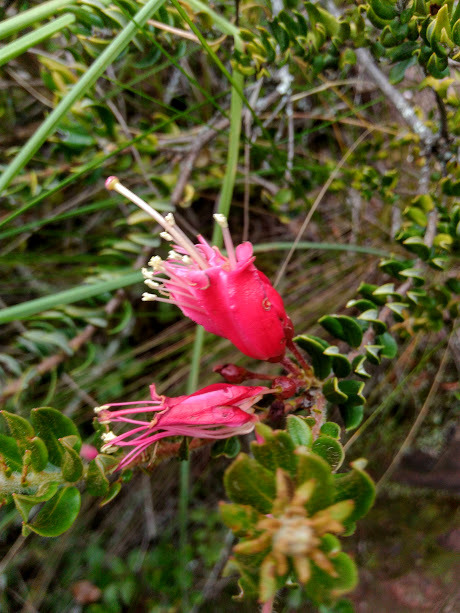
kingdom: Plantae
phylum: Tracheophyta
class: Magnoliopsida
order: Ericales
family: Ericaceae
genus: Bejaria
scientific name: Bejaria resinosa
